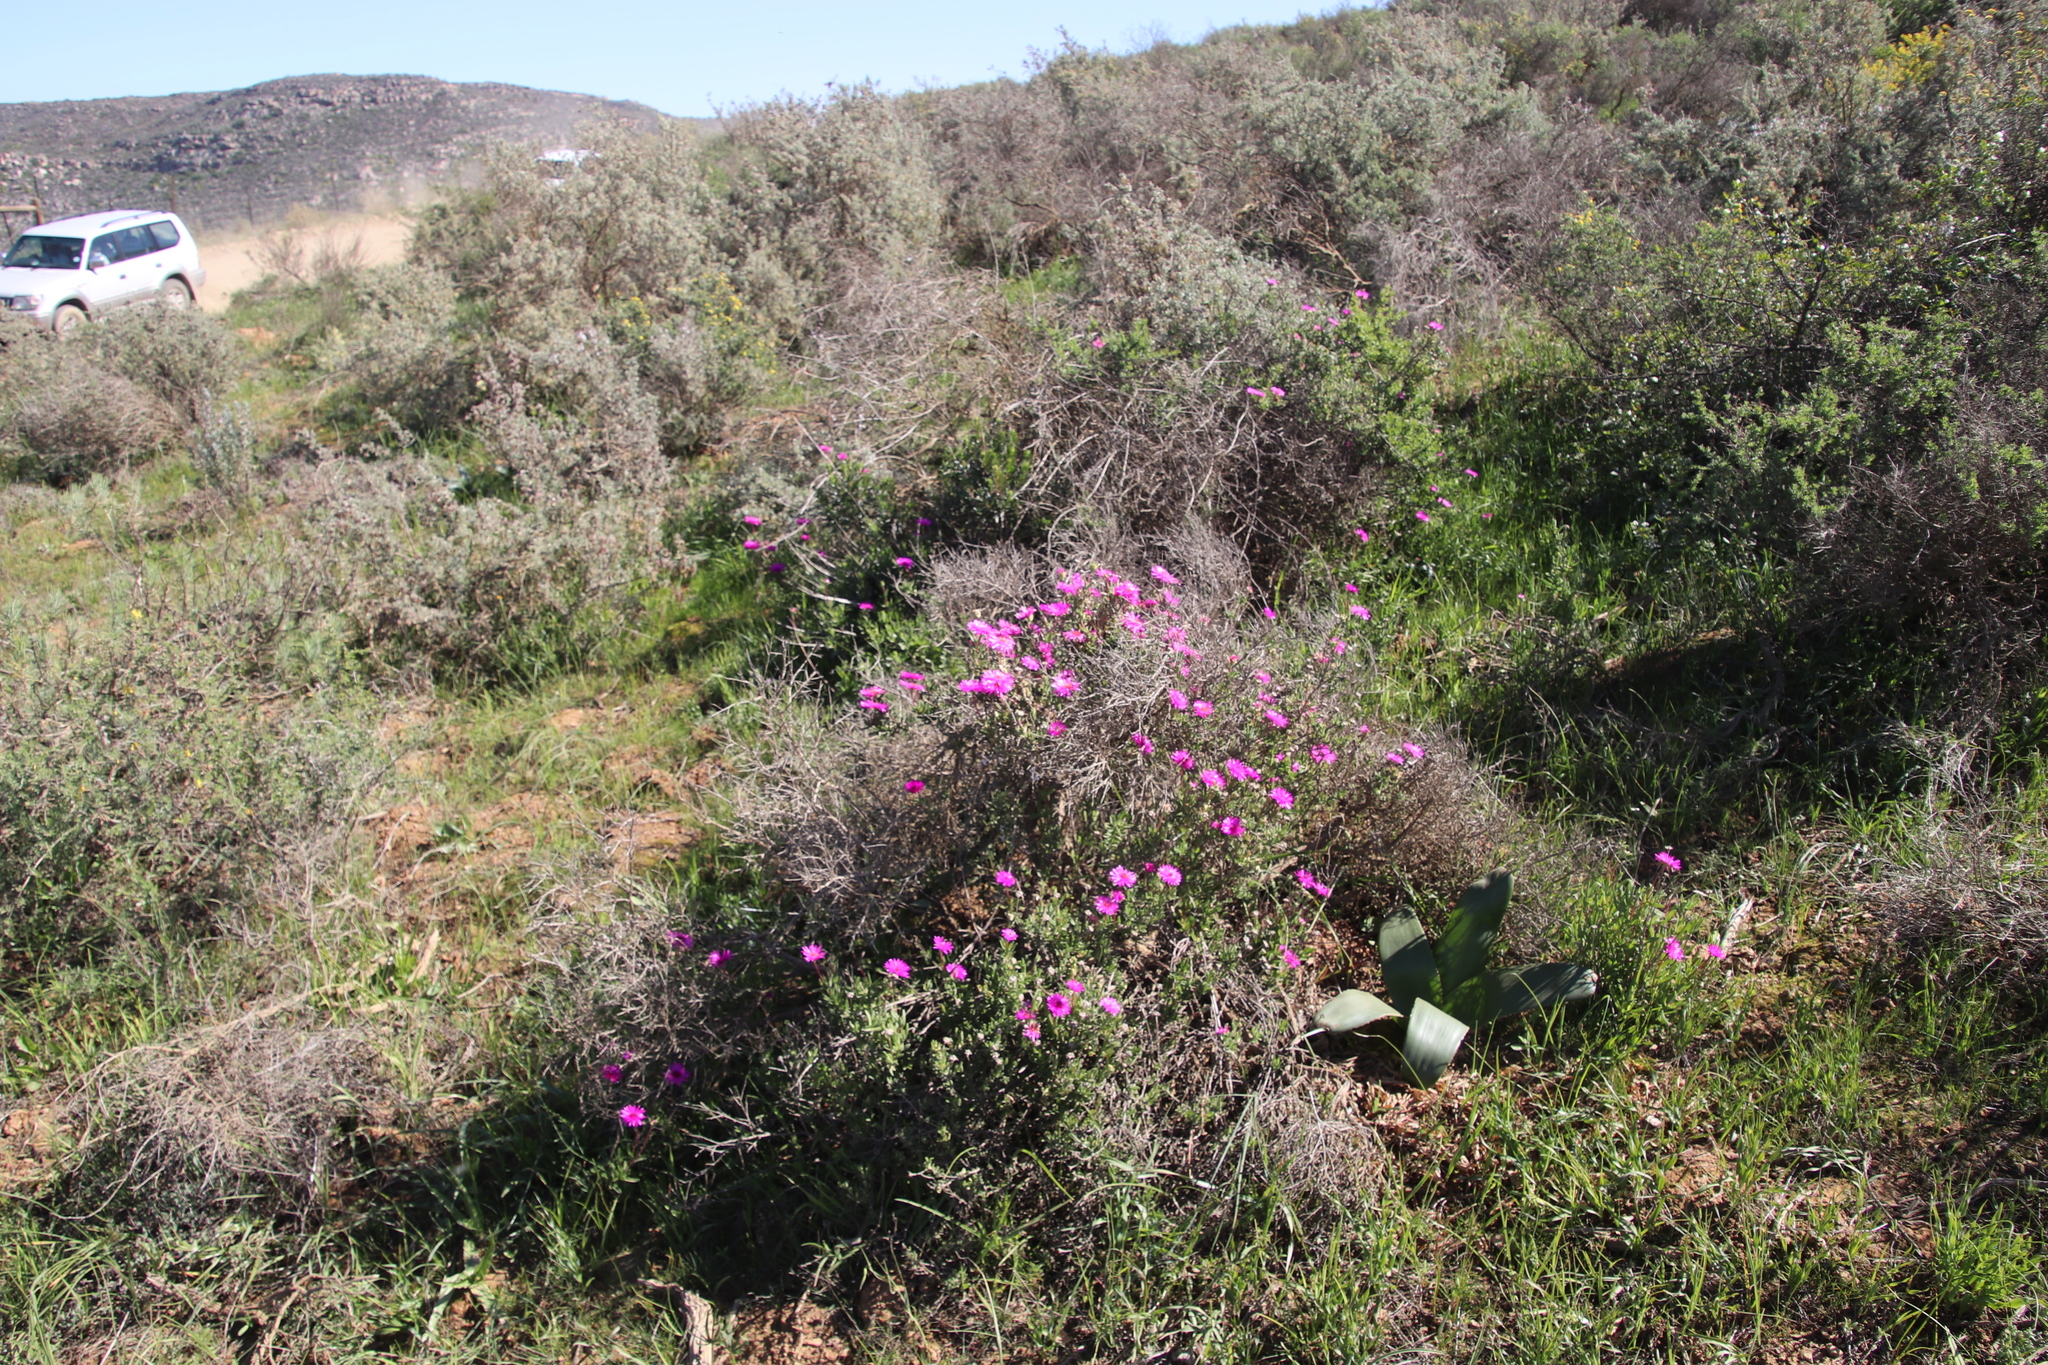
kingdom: Plantae
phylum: Tracheophyta
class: Magnoliopsida
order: Caryophyllales
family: Aizoaceae
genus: Drosanthemum
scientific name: Drosanthemum longipes
